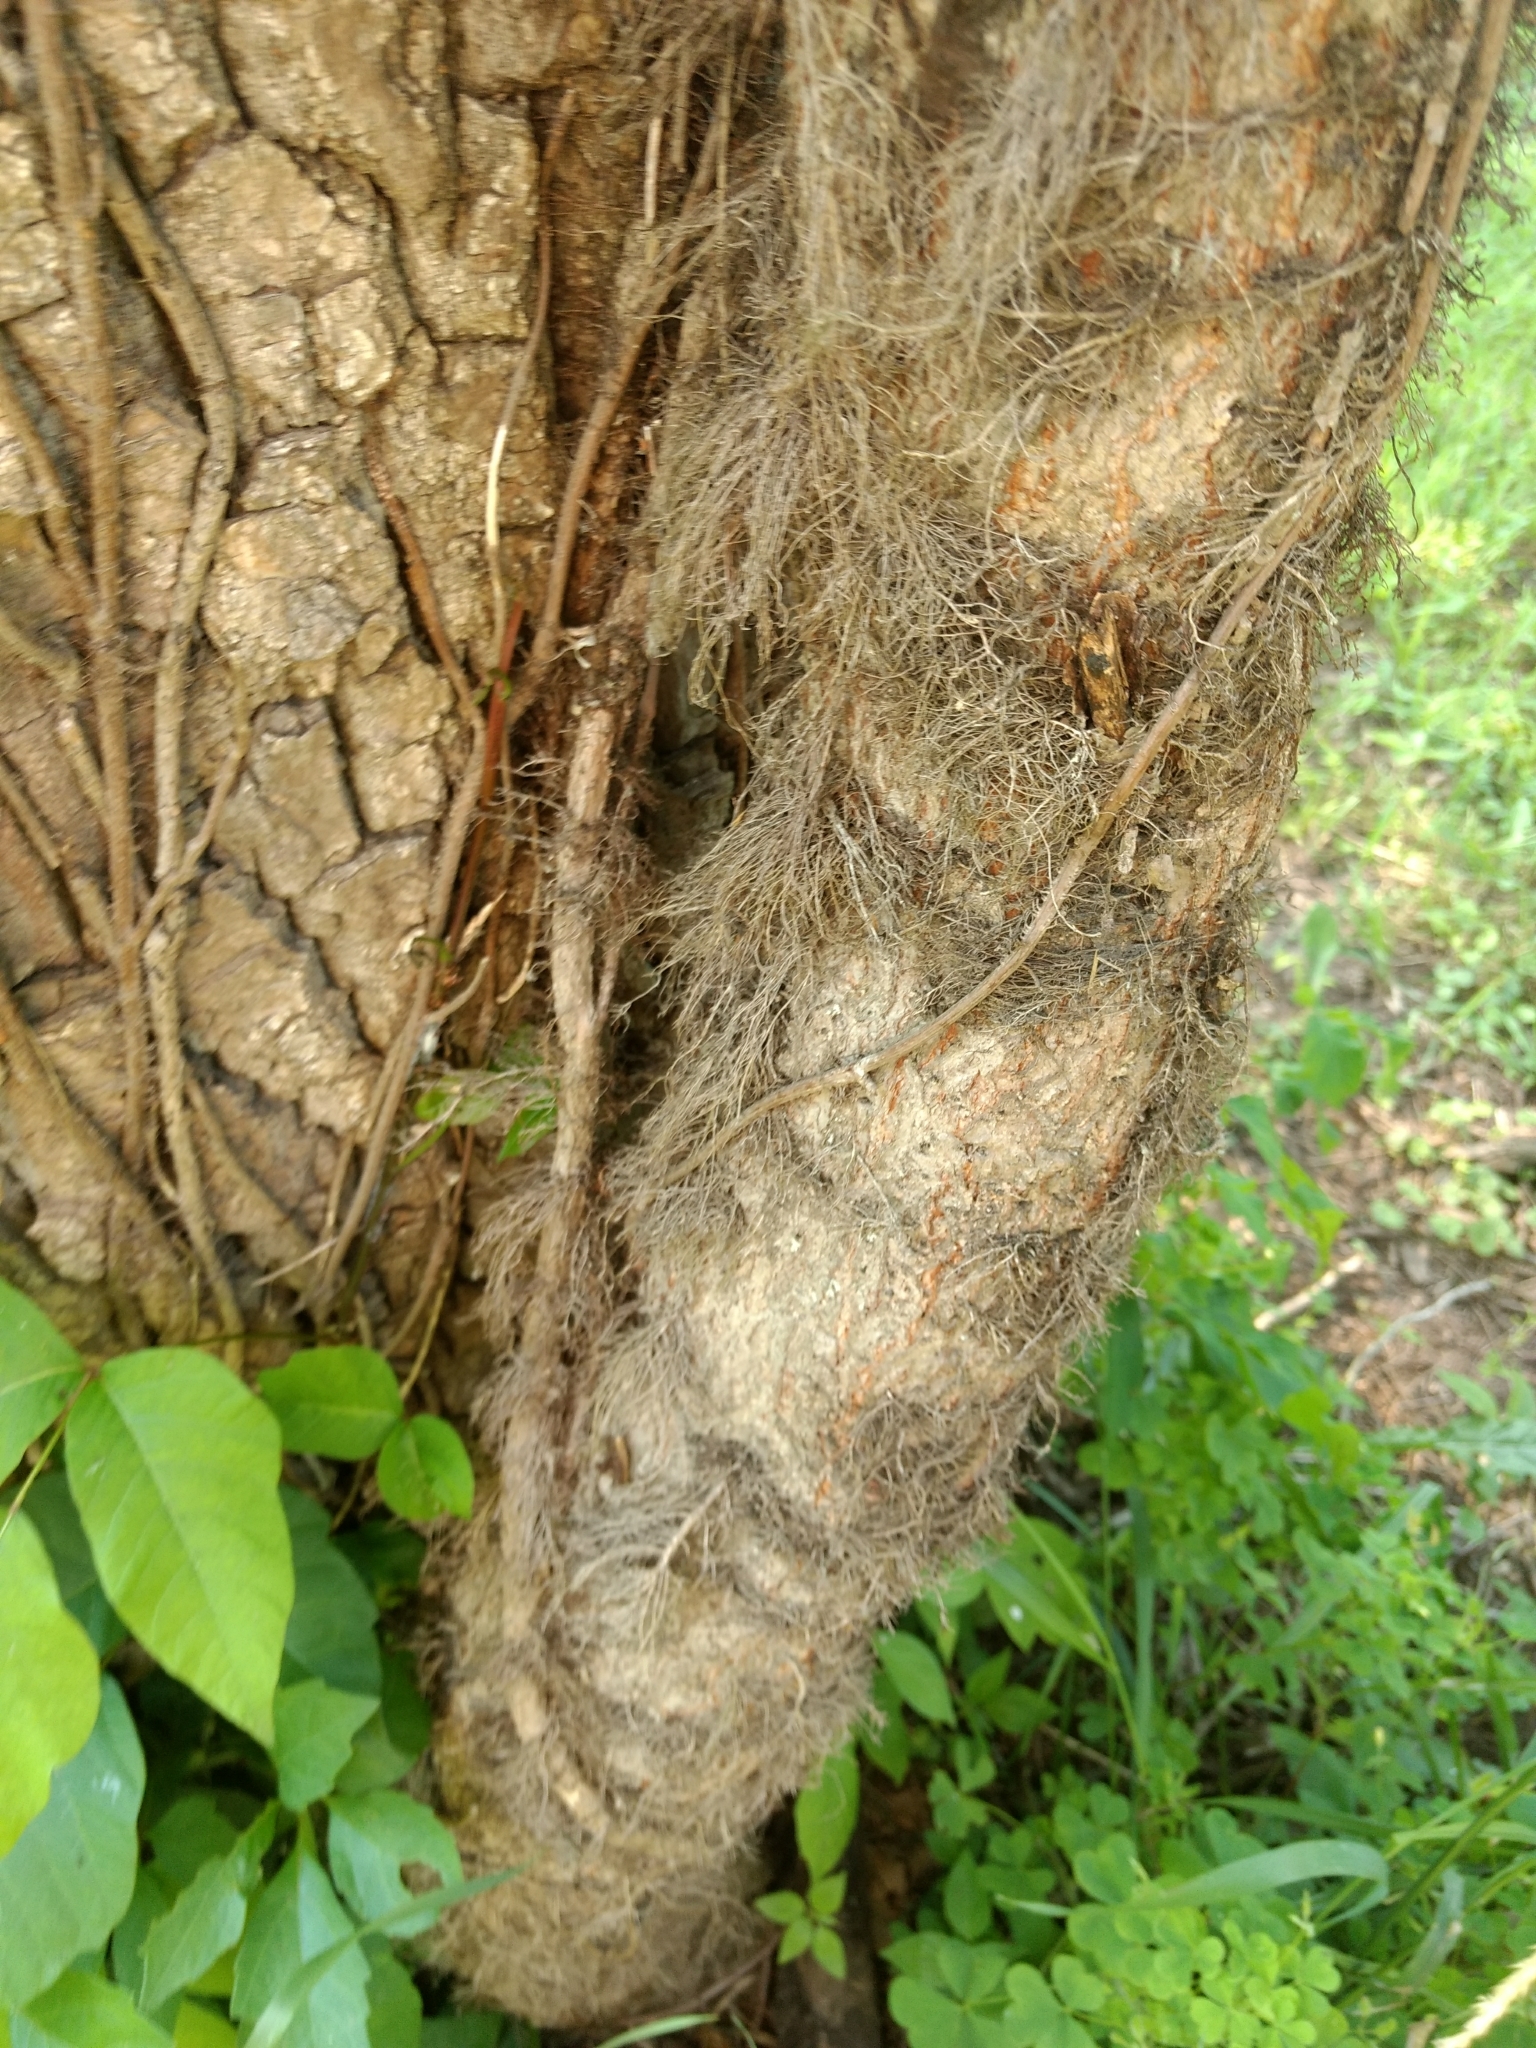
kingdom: Plantae
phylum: Tracheophyta
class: Magnoliopsida
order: Sapindales
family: Anacardiaceae
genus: Toxicodendron
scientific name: Toxicodendron radicans
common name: Poison ivy
